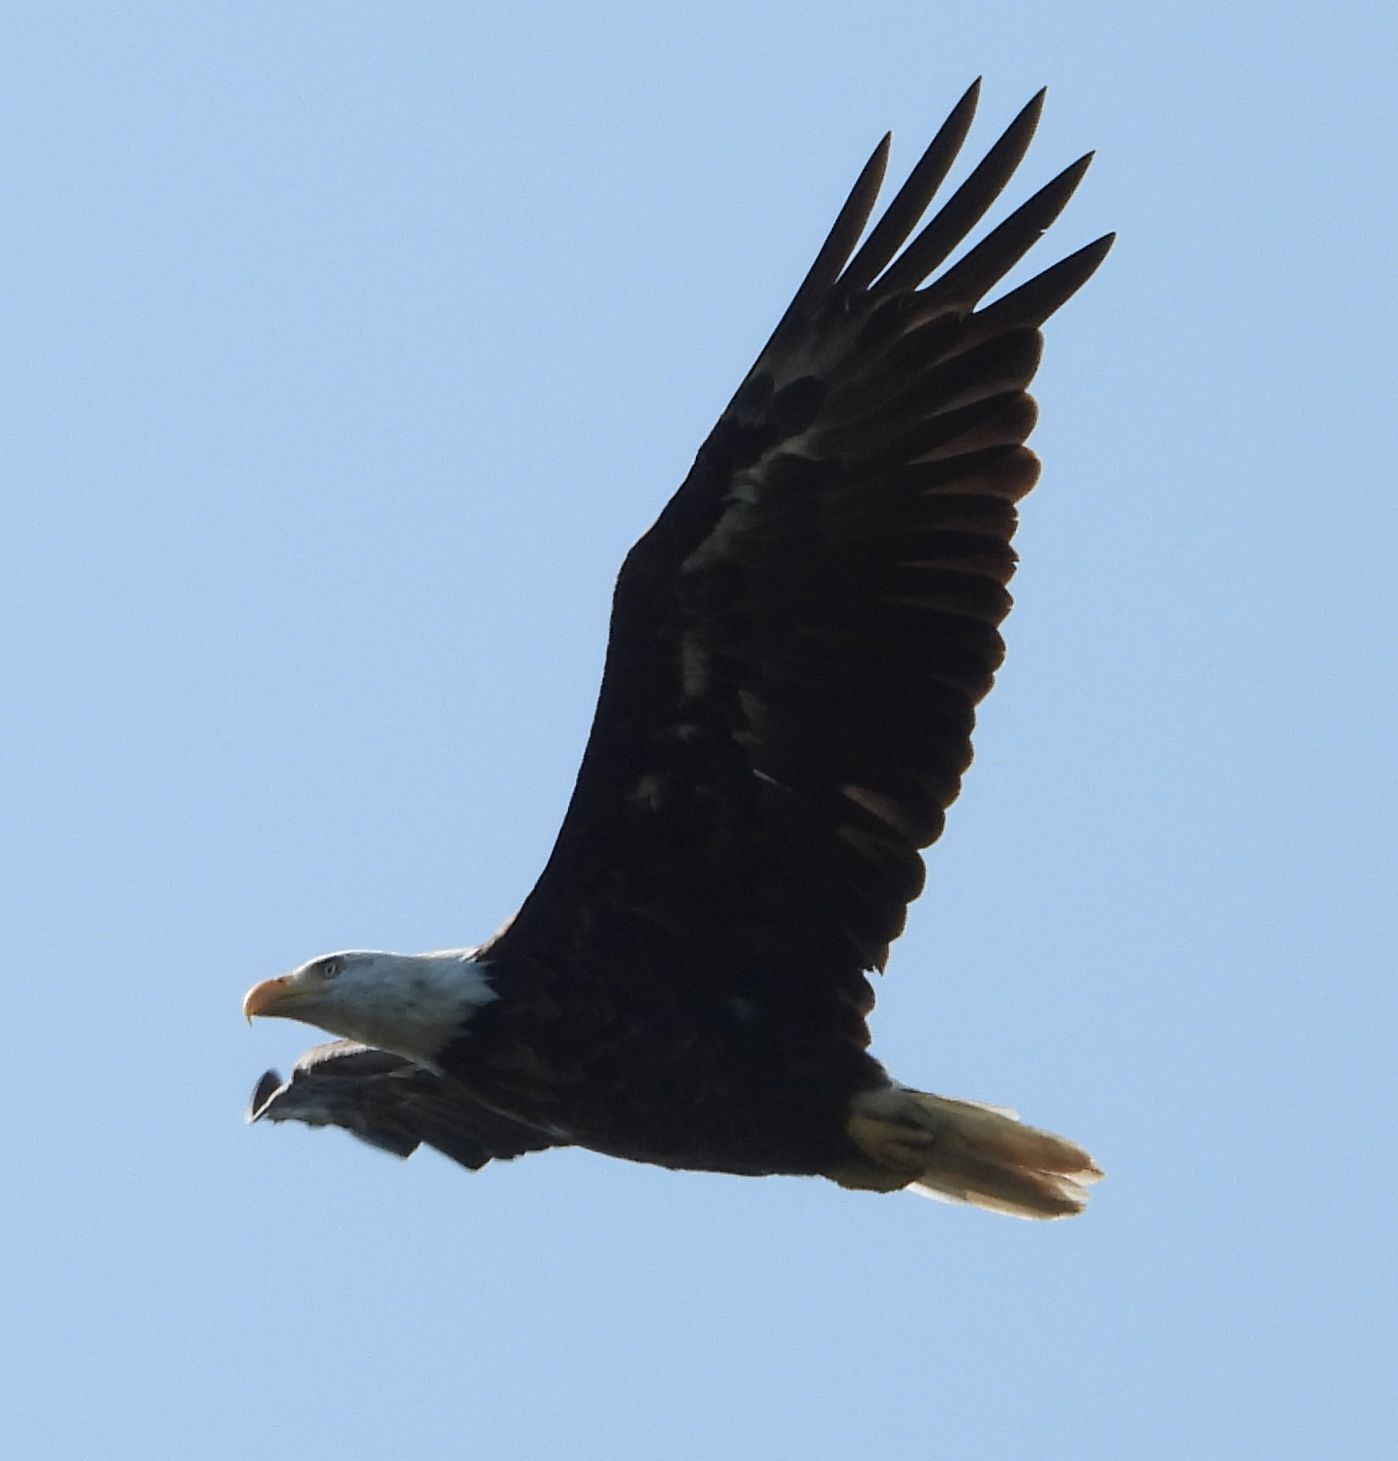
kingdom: Animalia
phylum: Chordata
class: Aves
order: Accipitriformes
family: Accipitridae
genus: Haliaeetus
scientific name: Haliaeetus leucocephalus
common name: Bald eagle
